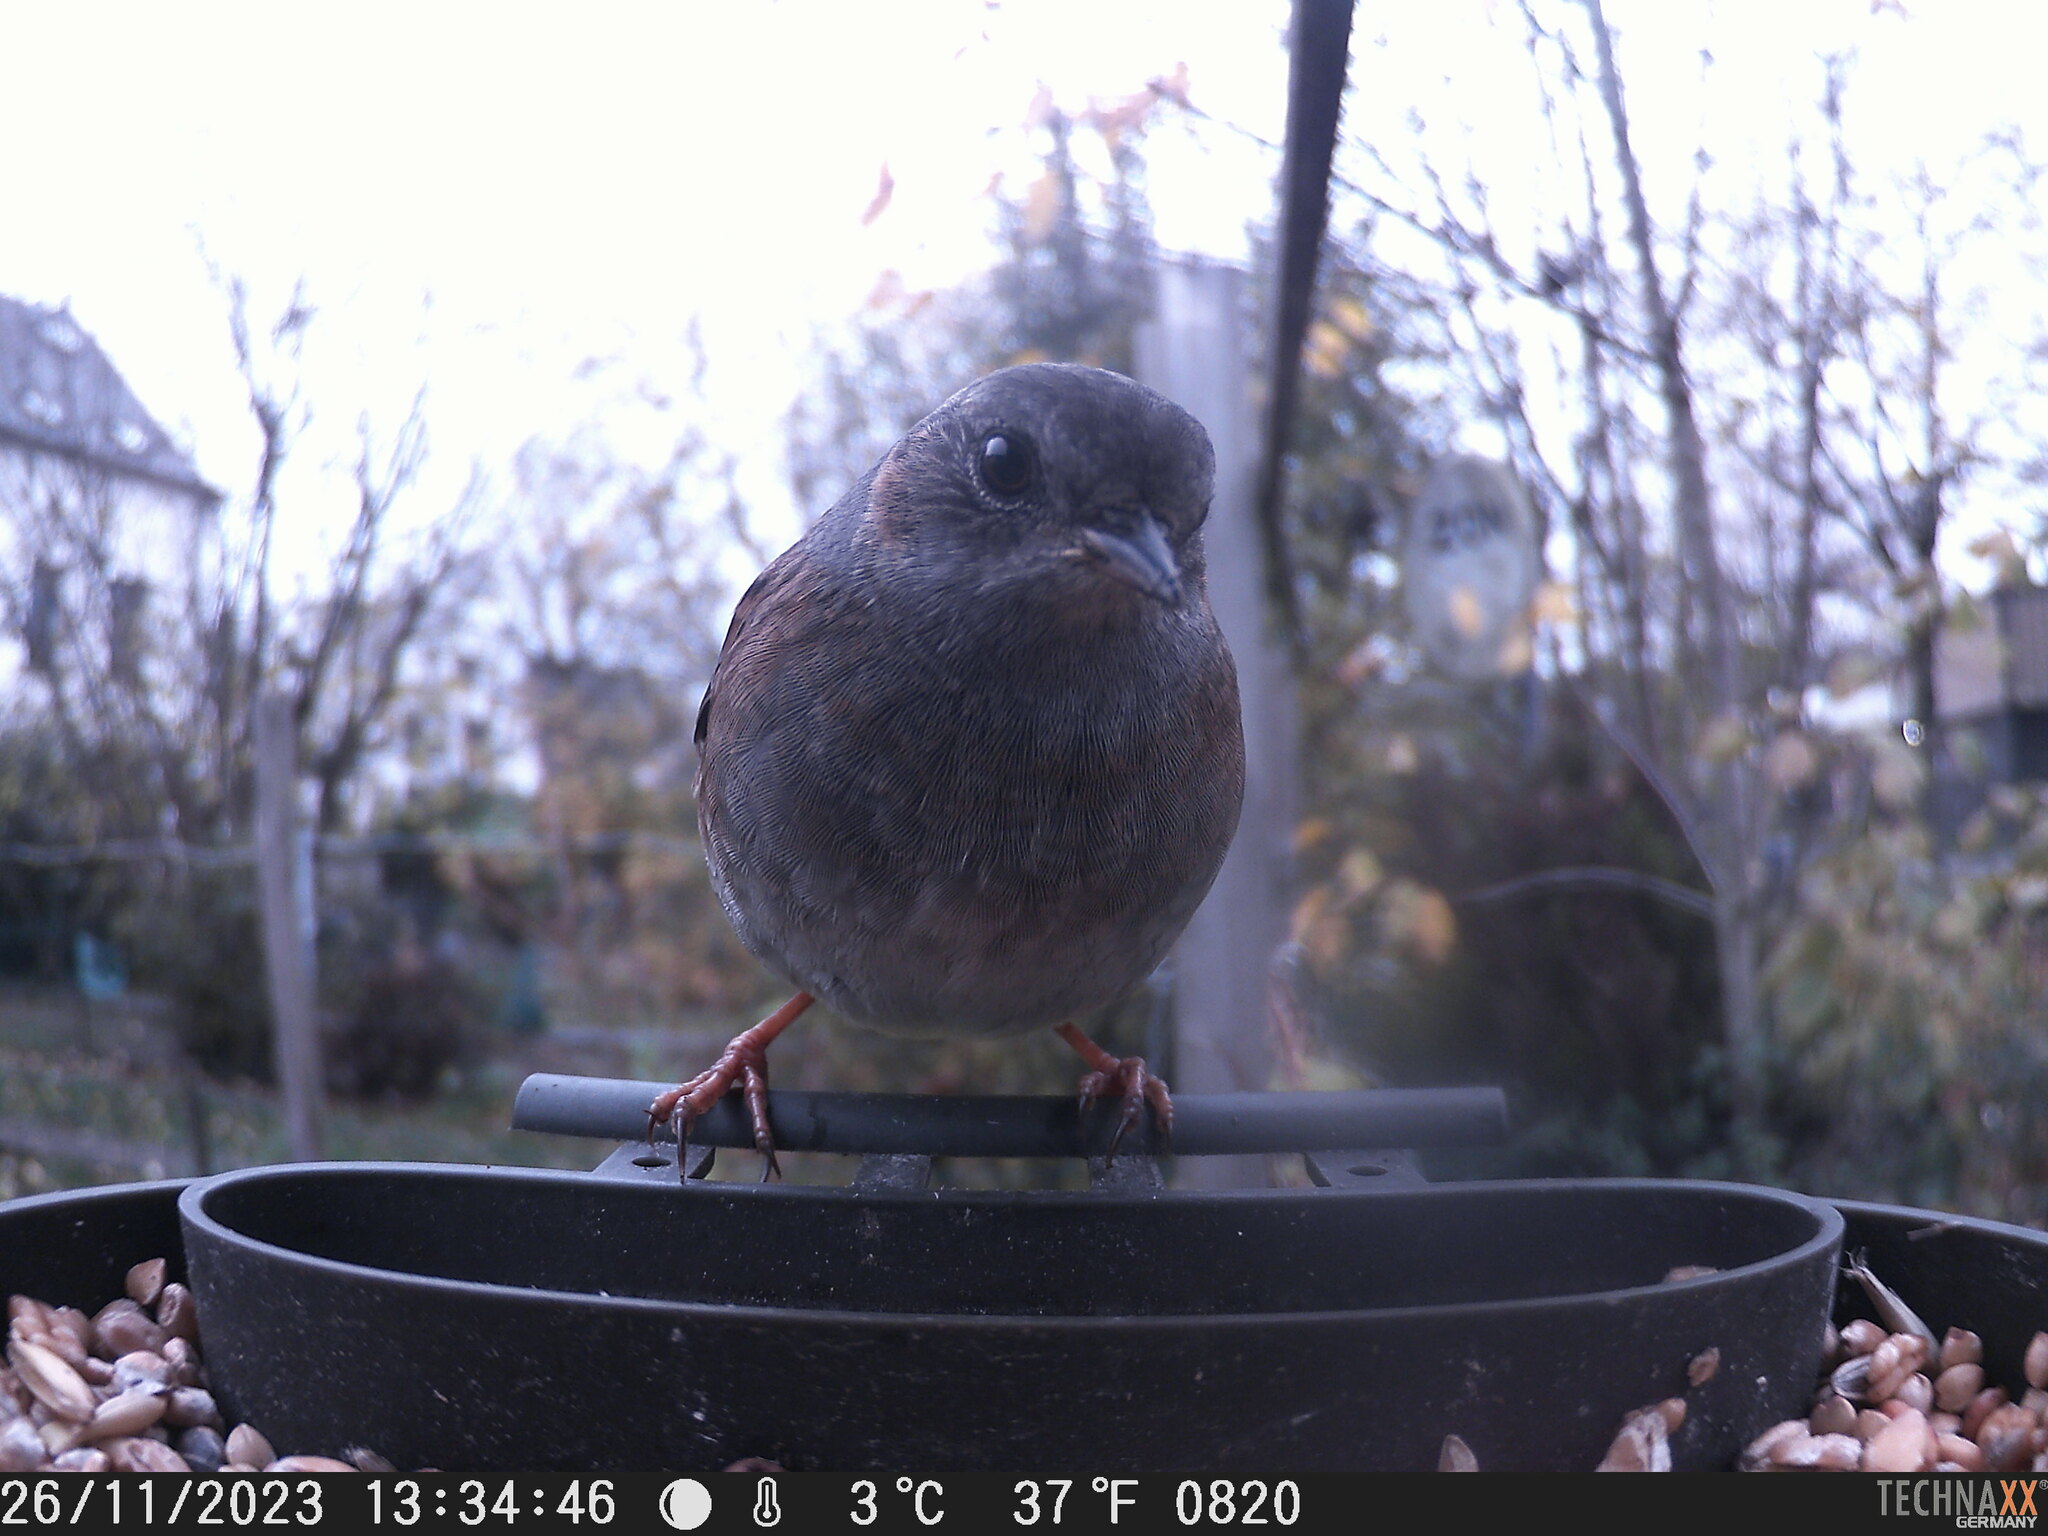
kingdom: Animalia
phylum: Chordata
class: Aves
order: Passeriformes
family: Prunellidae
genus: Prunella
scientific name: Prunella modularis
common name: Dunnock
